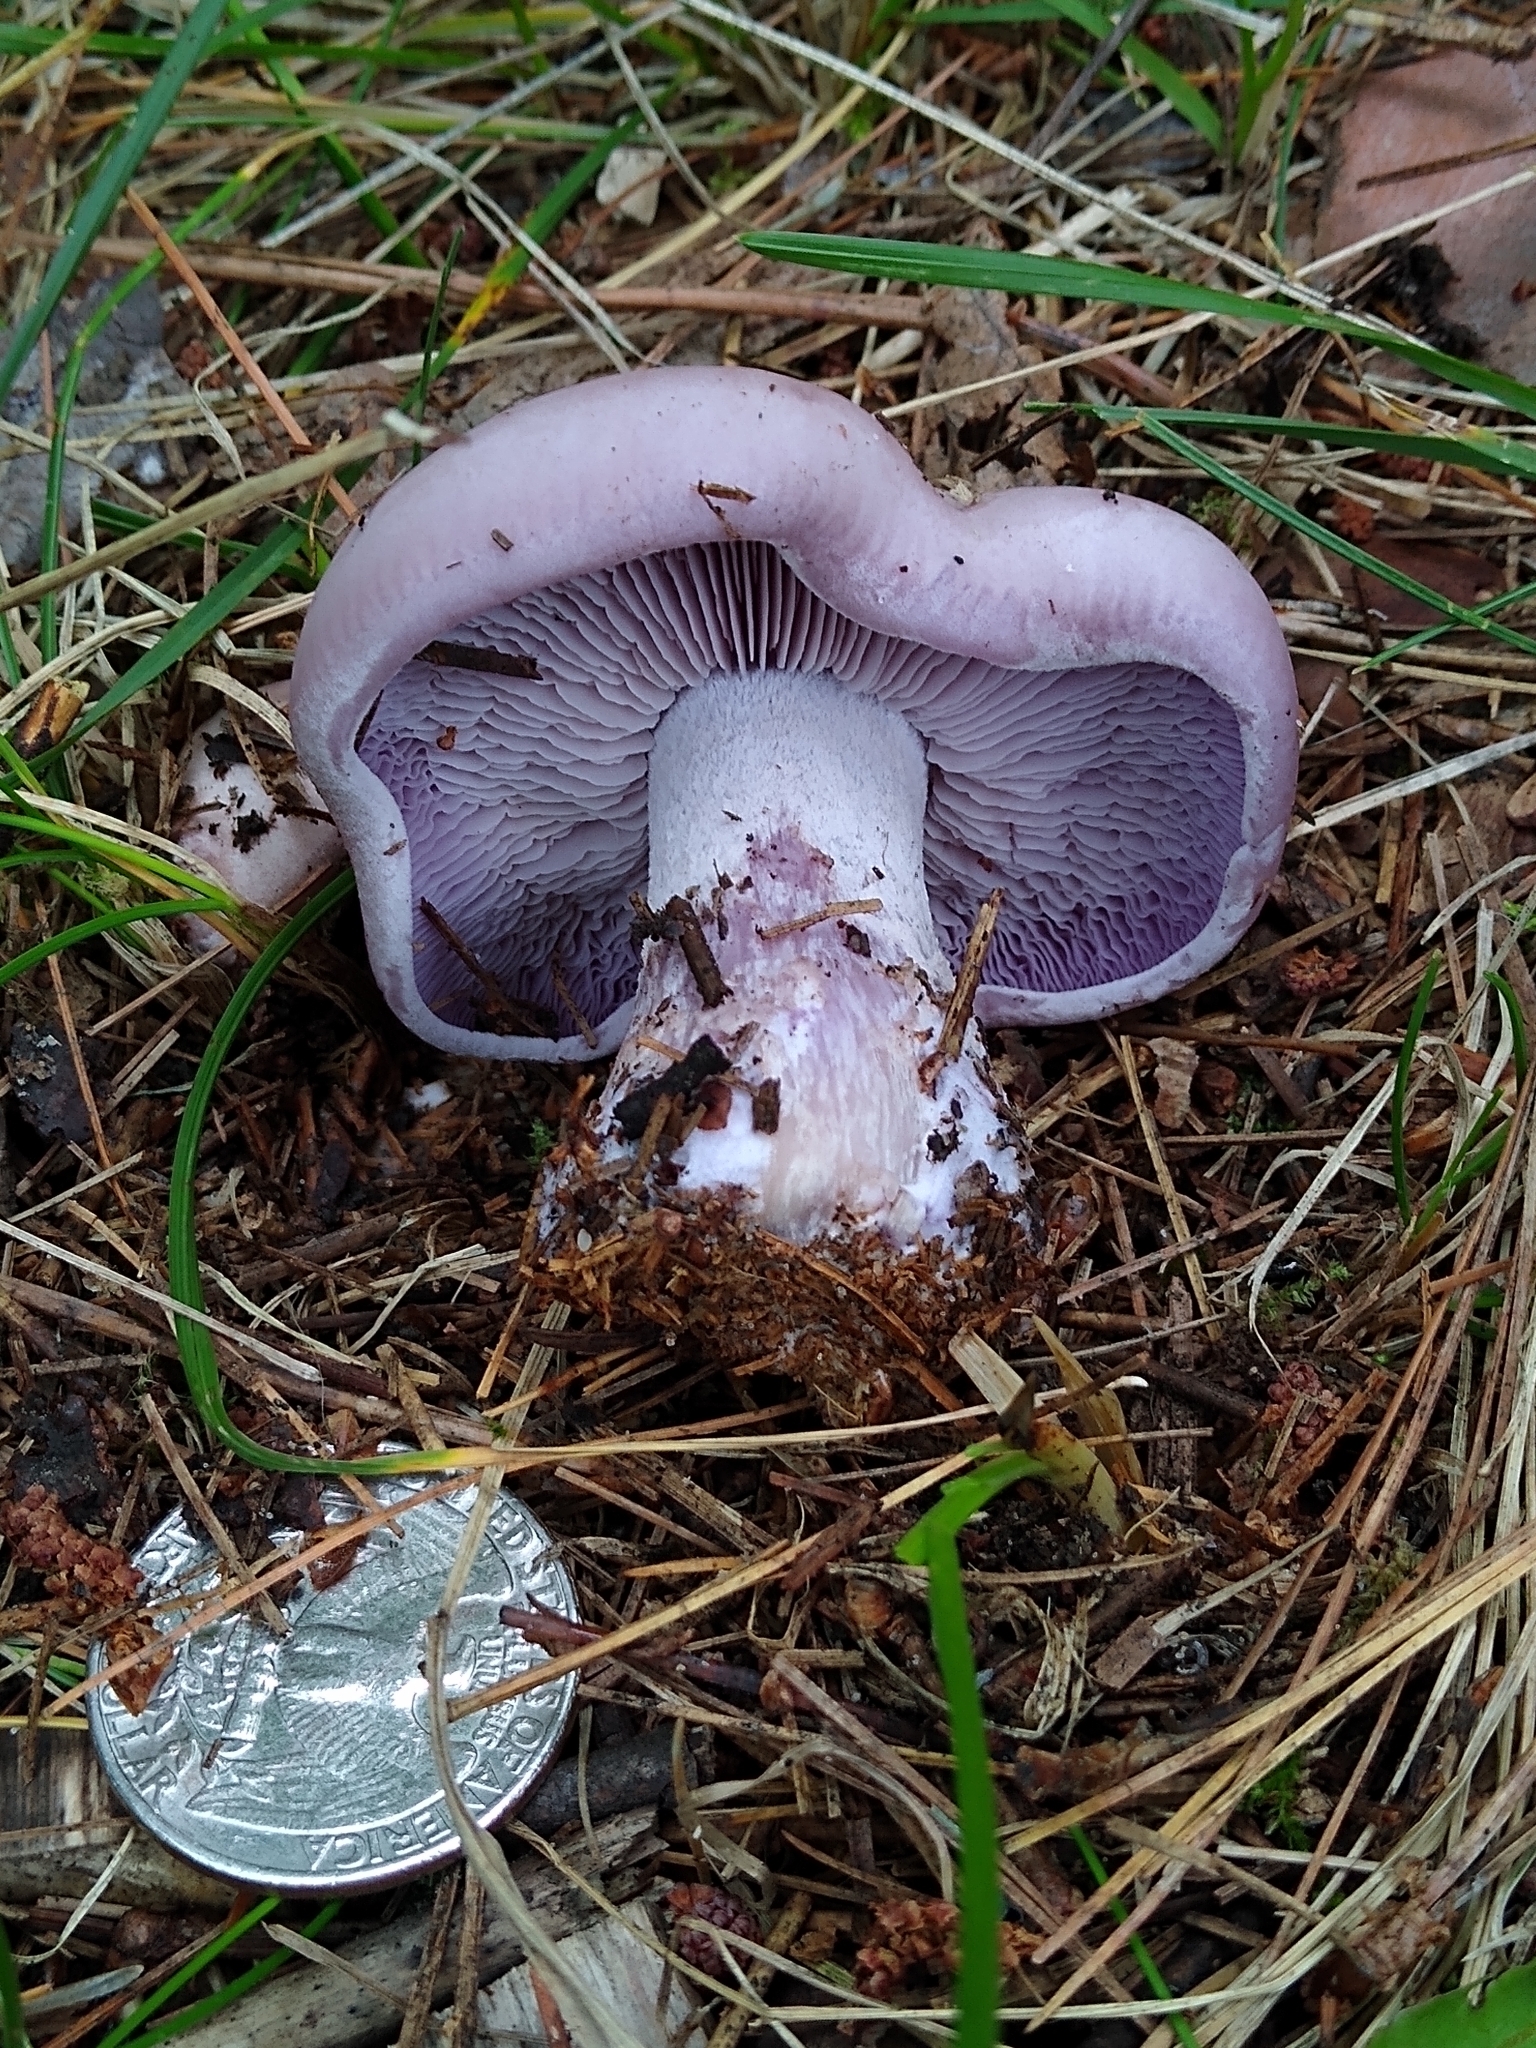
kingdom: Fungi
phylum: Basidiomycota
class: Agaricomycetes
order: Agaricales
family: Tricholomataceae
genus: Collybia
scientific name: Collybia
